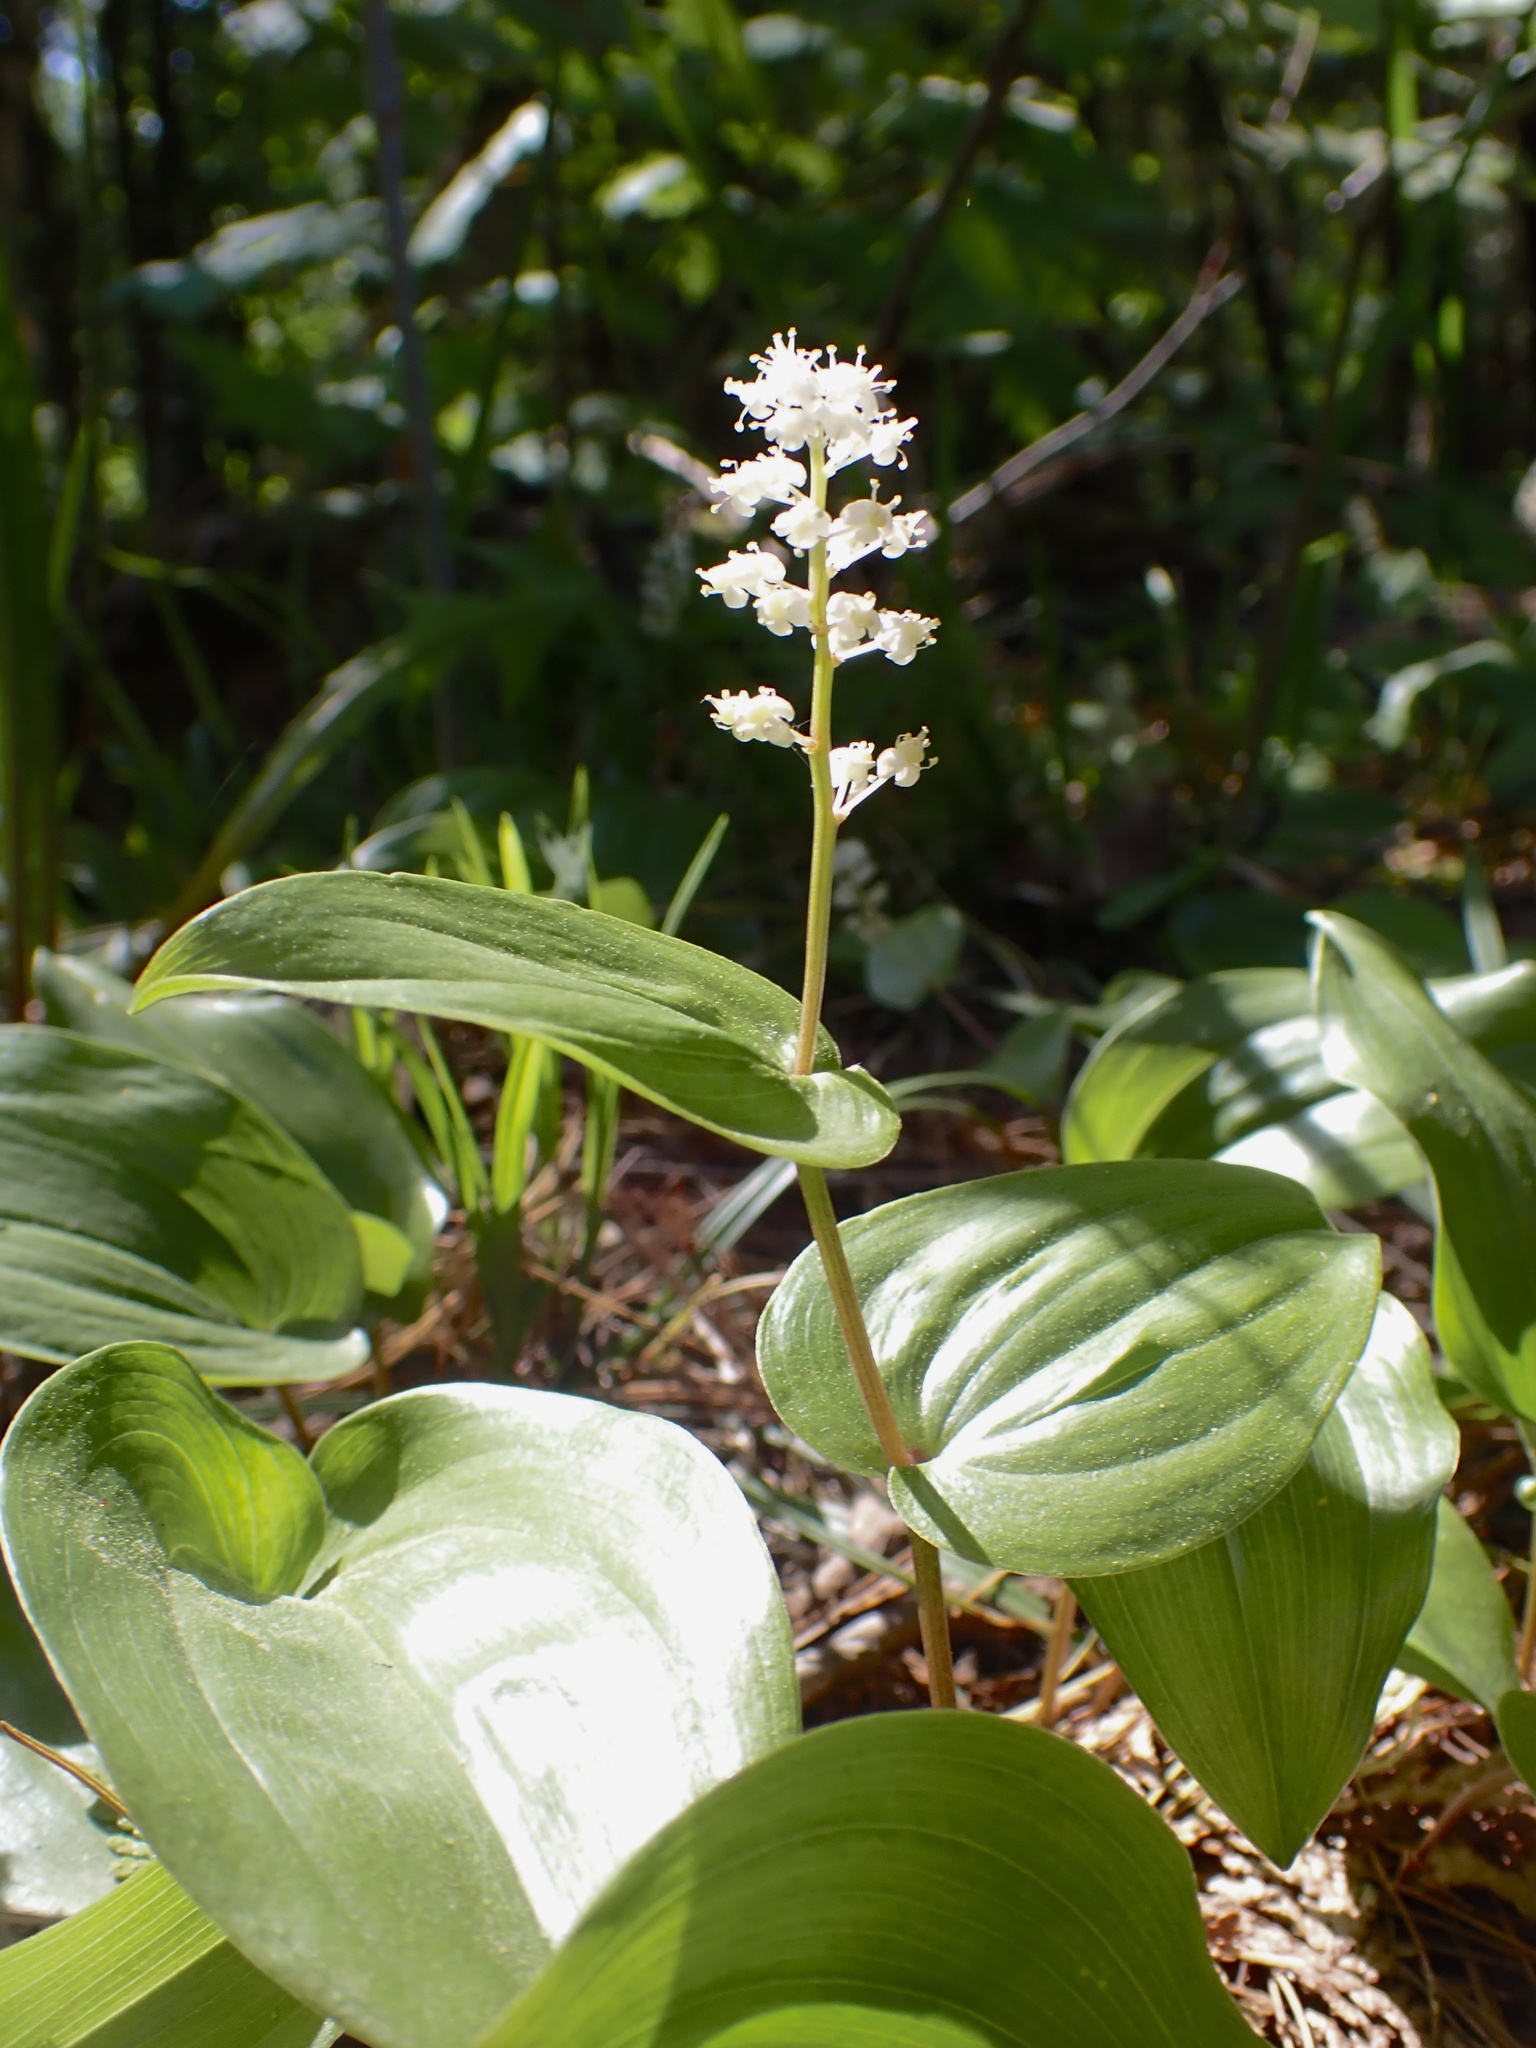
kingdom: Plantae
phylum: Tracheophyta
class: Liliopsida
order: Asparagales
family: Asparagaceae
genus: Maianthemum
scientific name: Maianthemum canadense
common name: False lily-of-the-valley
